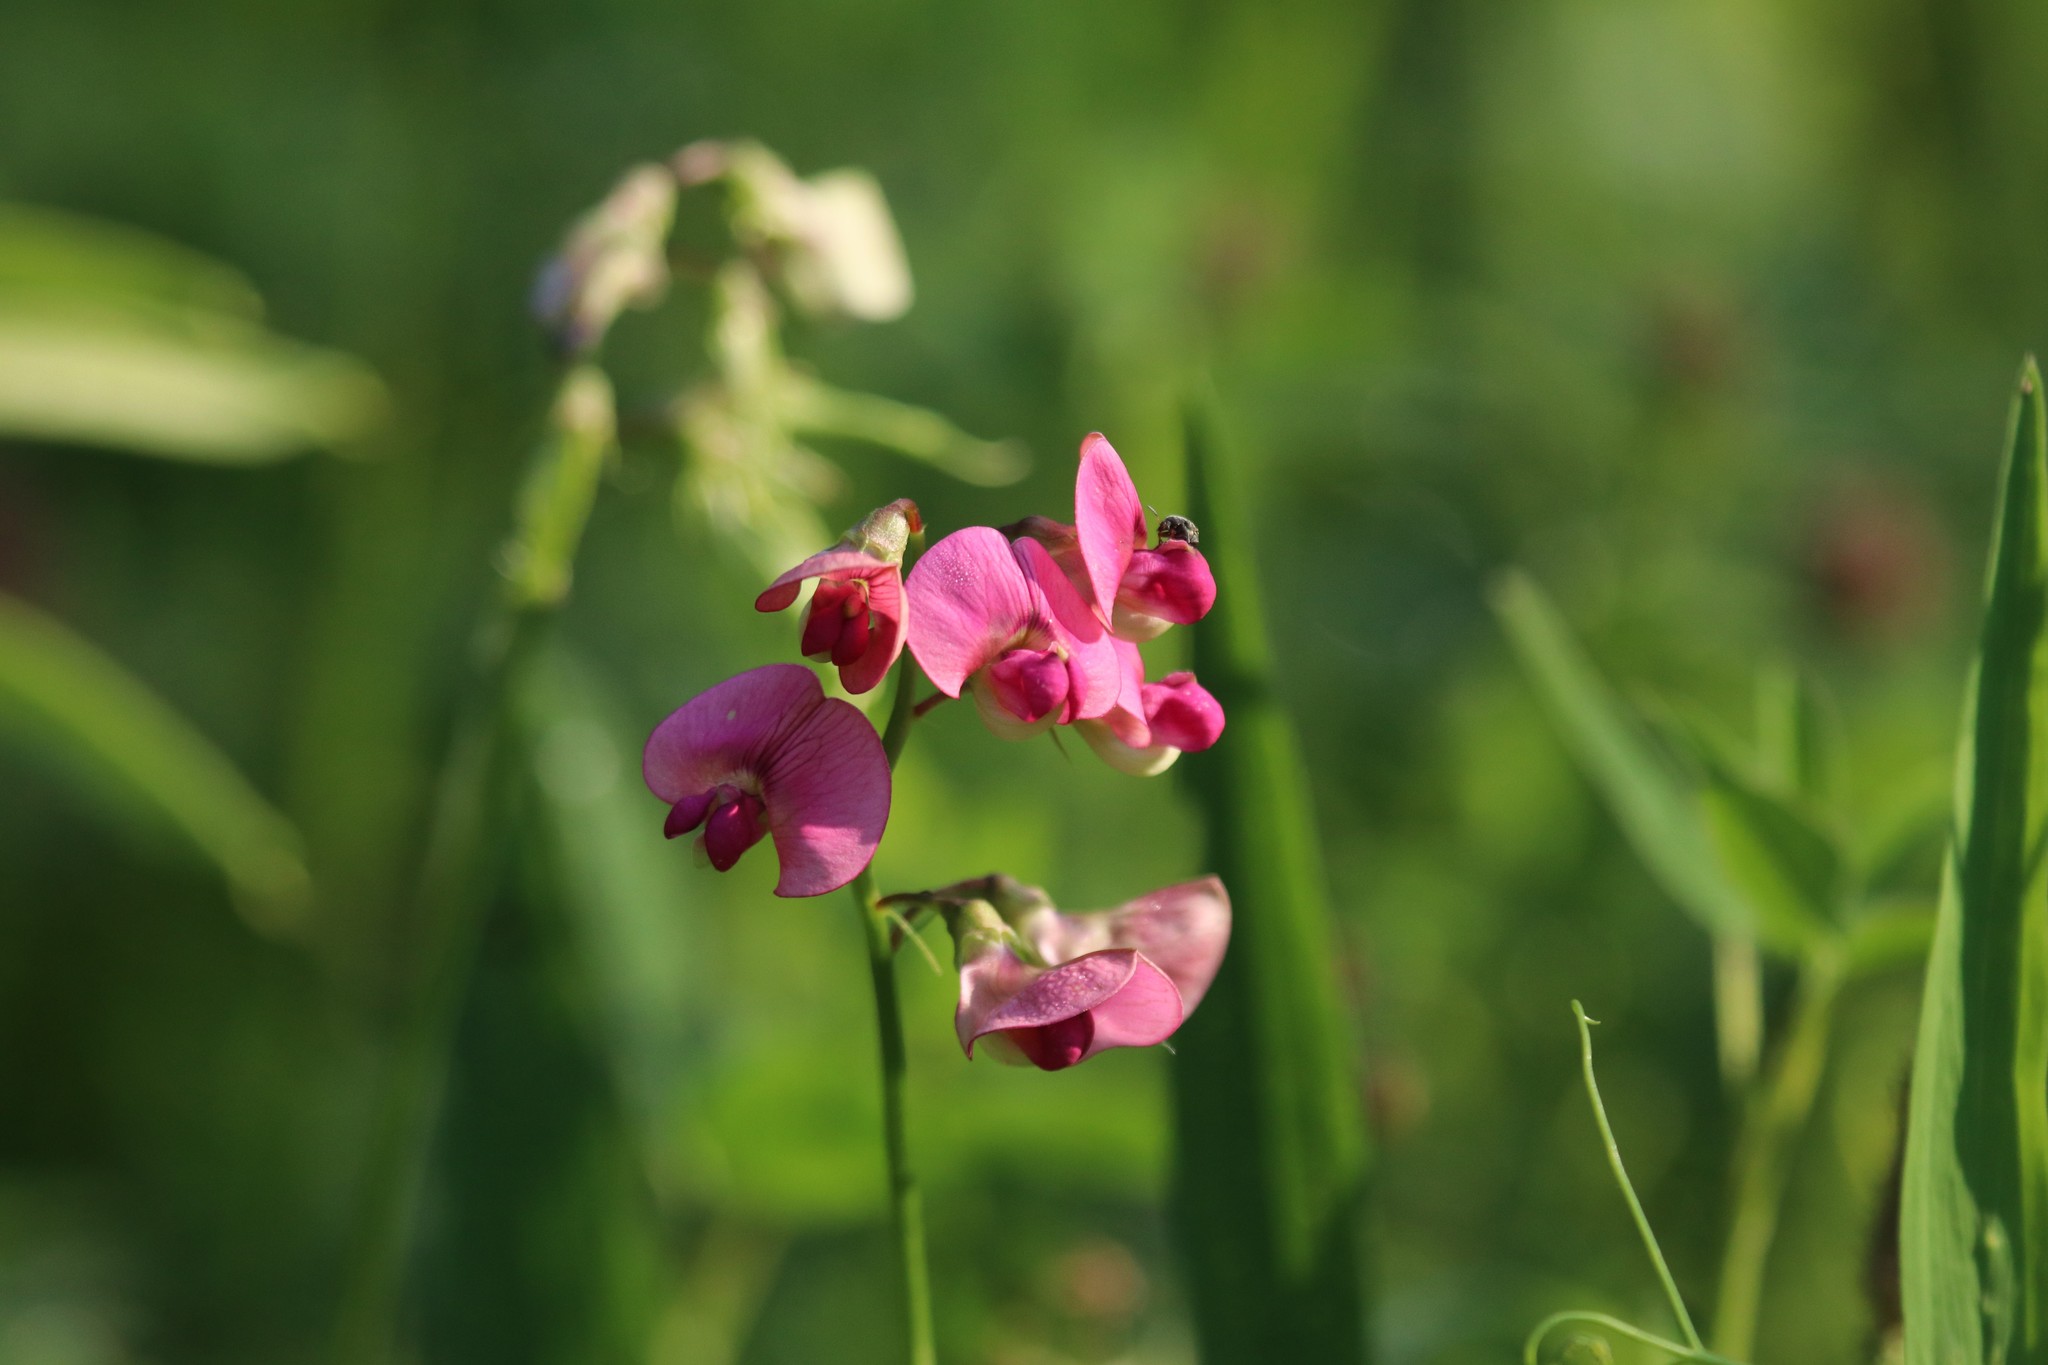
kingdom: Plantae
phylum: Tracheophyta
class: Magnoliopsida
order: Fabales
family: Fabaceae
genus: Lathyrus
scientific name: Lathyrus sylvestris
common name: Flat pea
